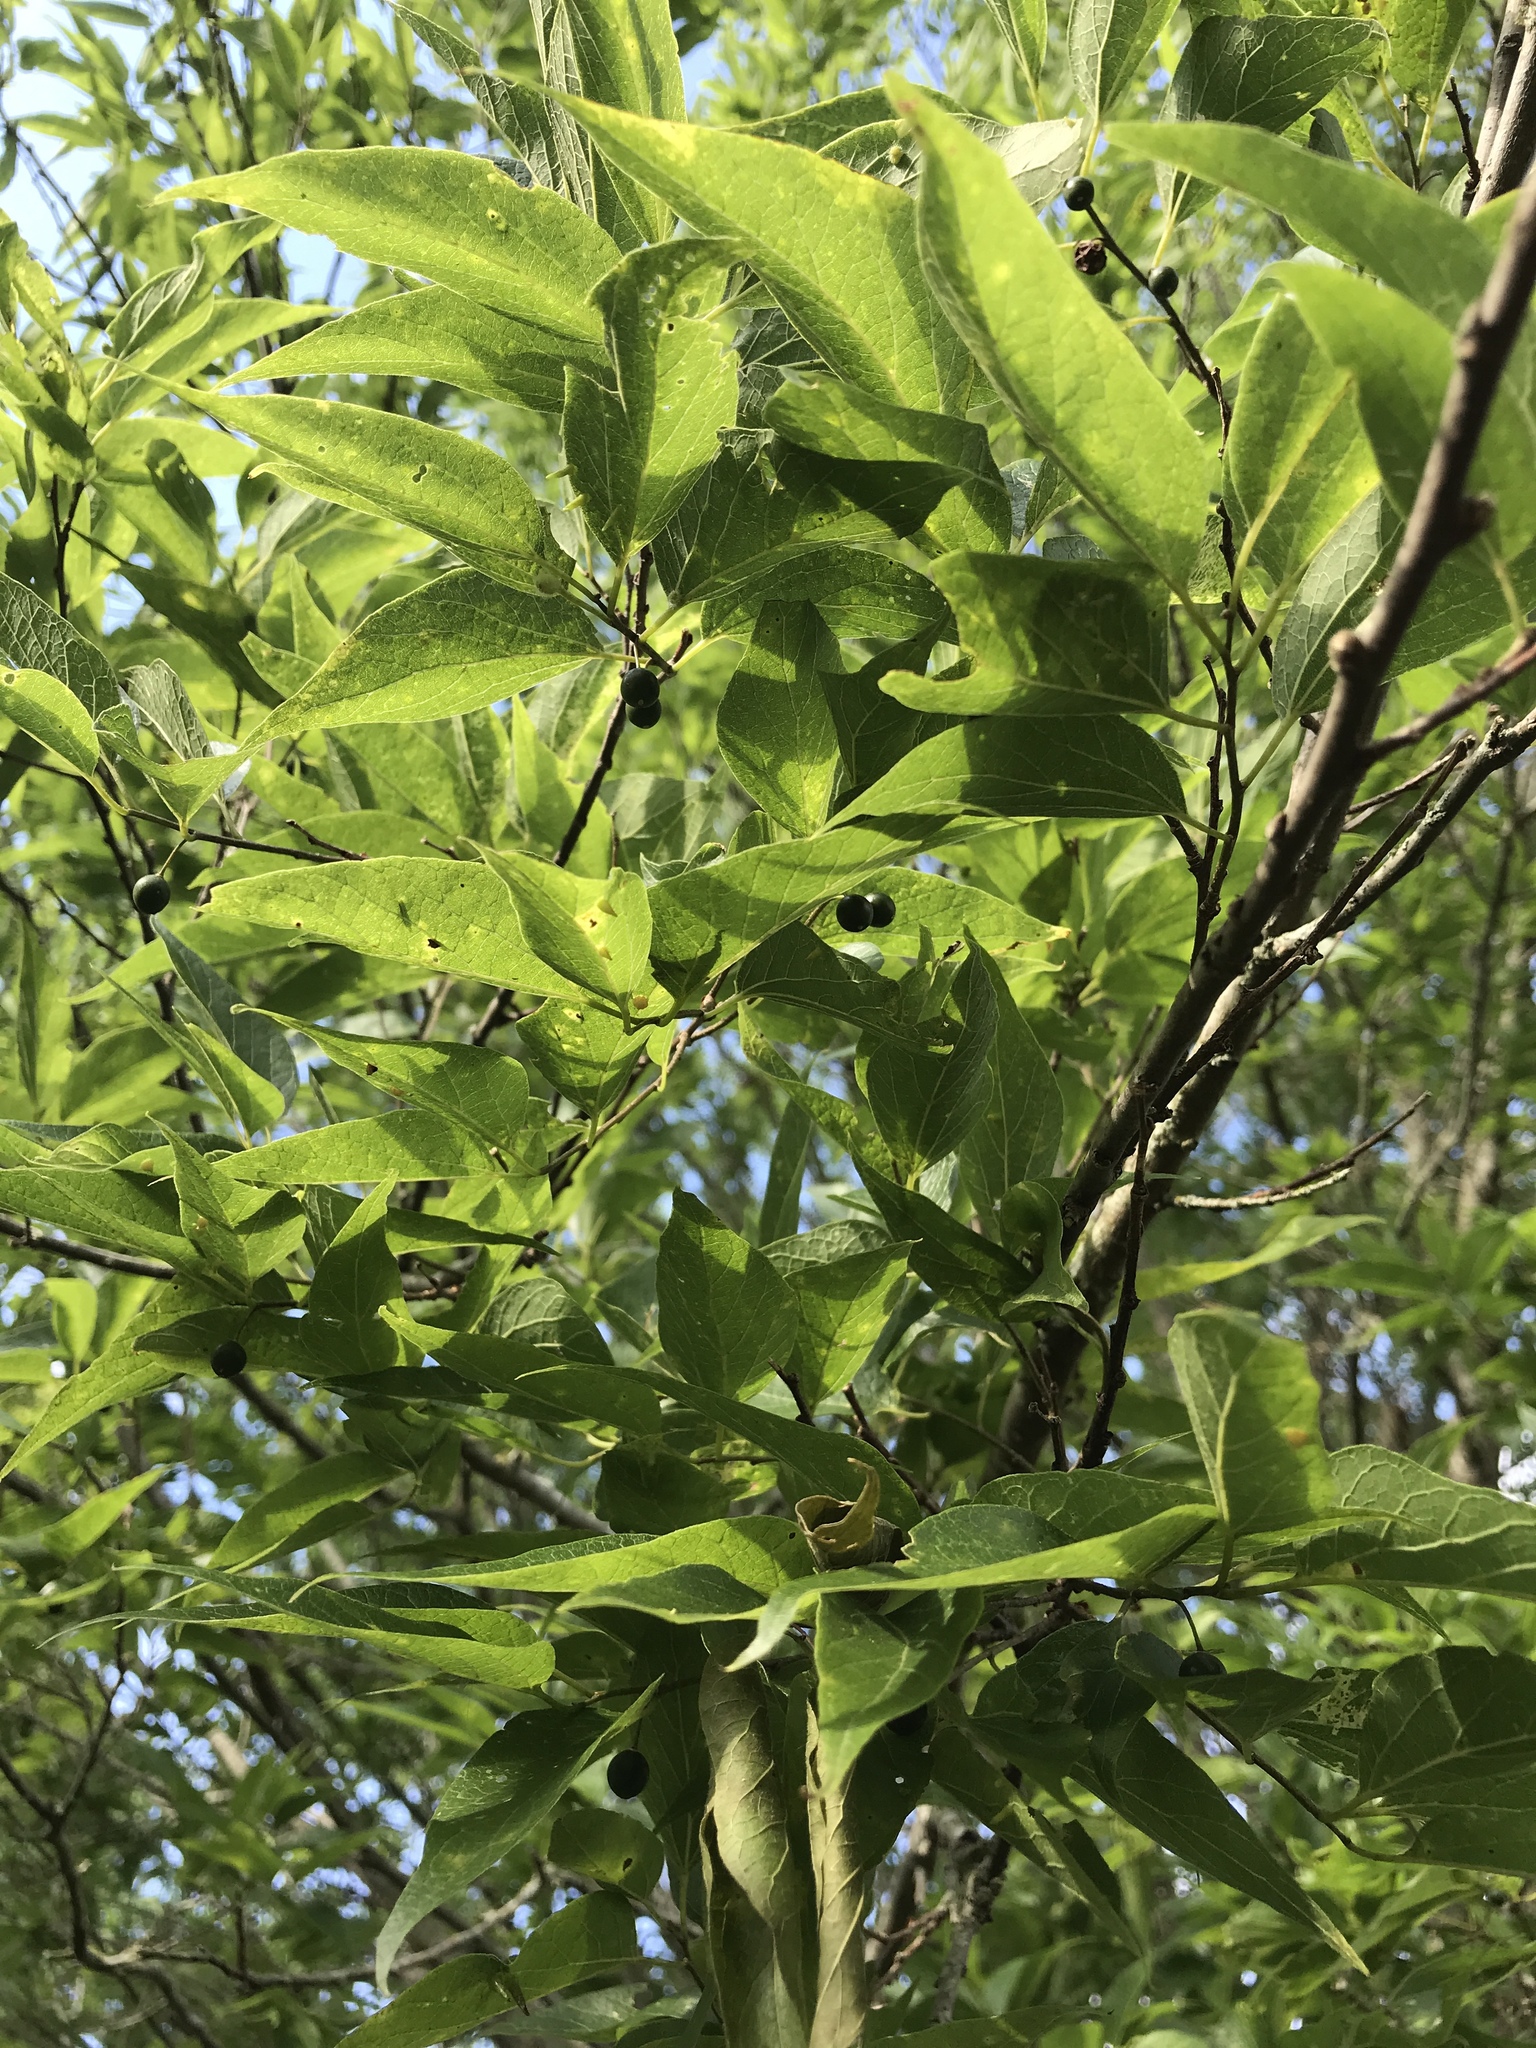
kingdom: Plantae
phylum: Tracheophyta
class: Magnoliopsida
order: Rosales
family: Cannabaceae
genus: Celtis
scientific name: Celtis laevigata
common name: Sugarberry
